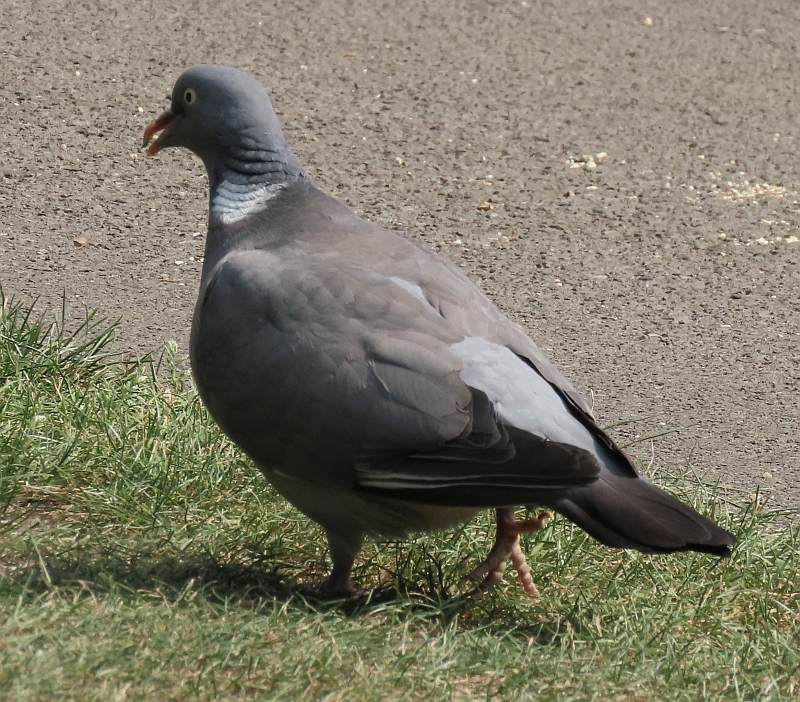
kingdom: Animalia
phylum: Chordata
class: Aves
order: Columbiformes
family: Columbidae
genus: Columba
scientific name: Columba palumbus
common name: Common wood pigeon
